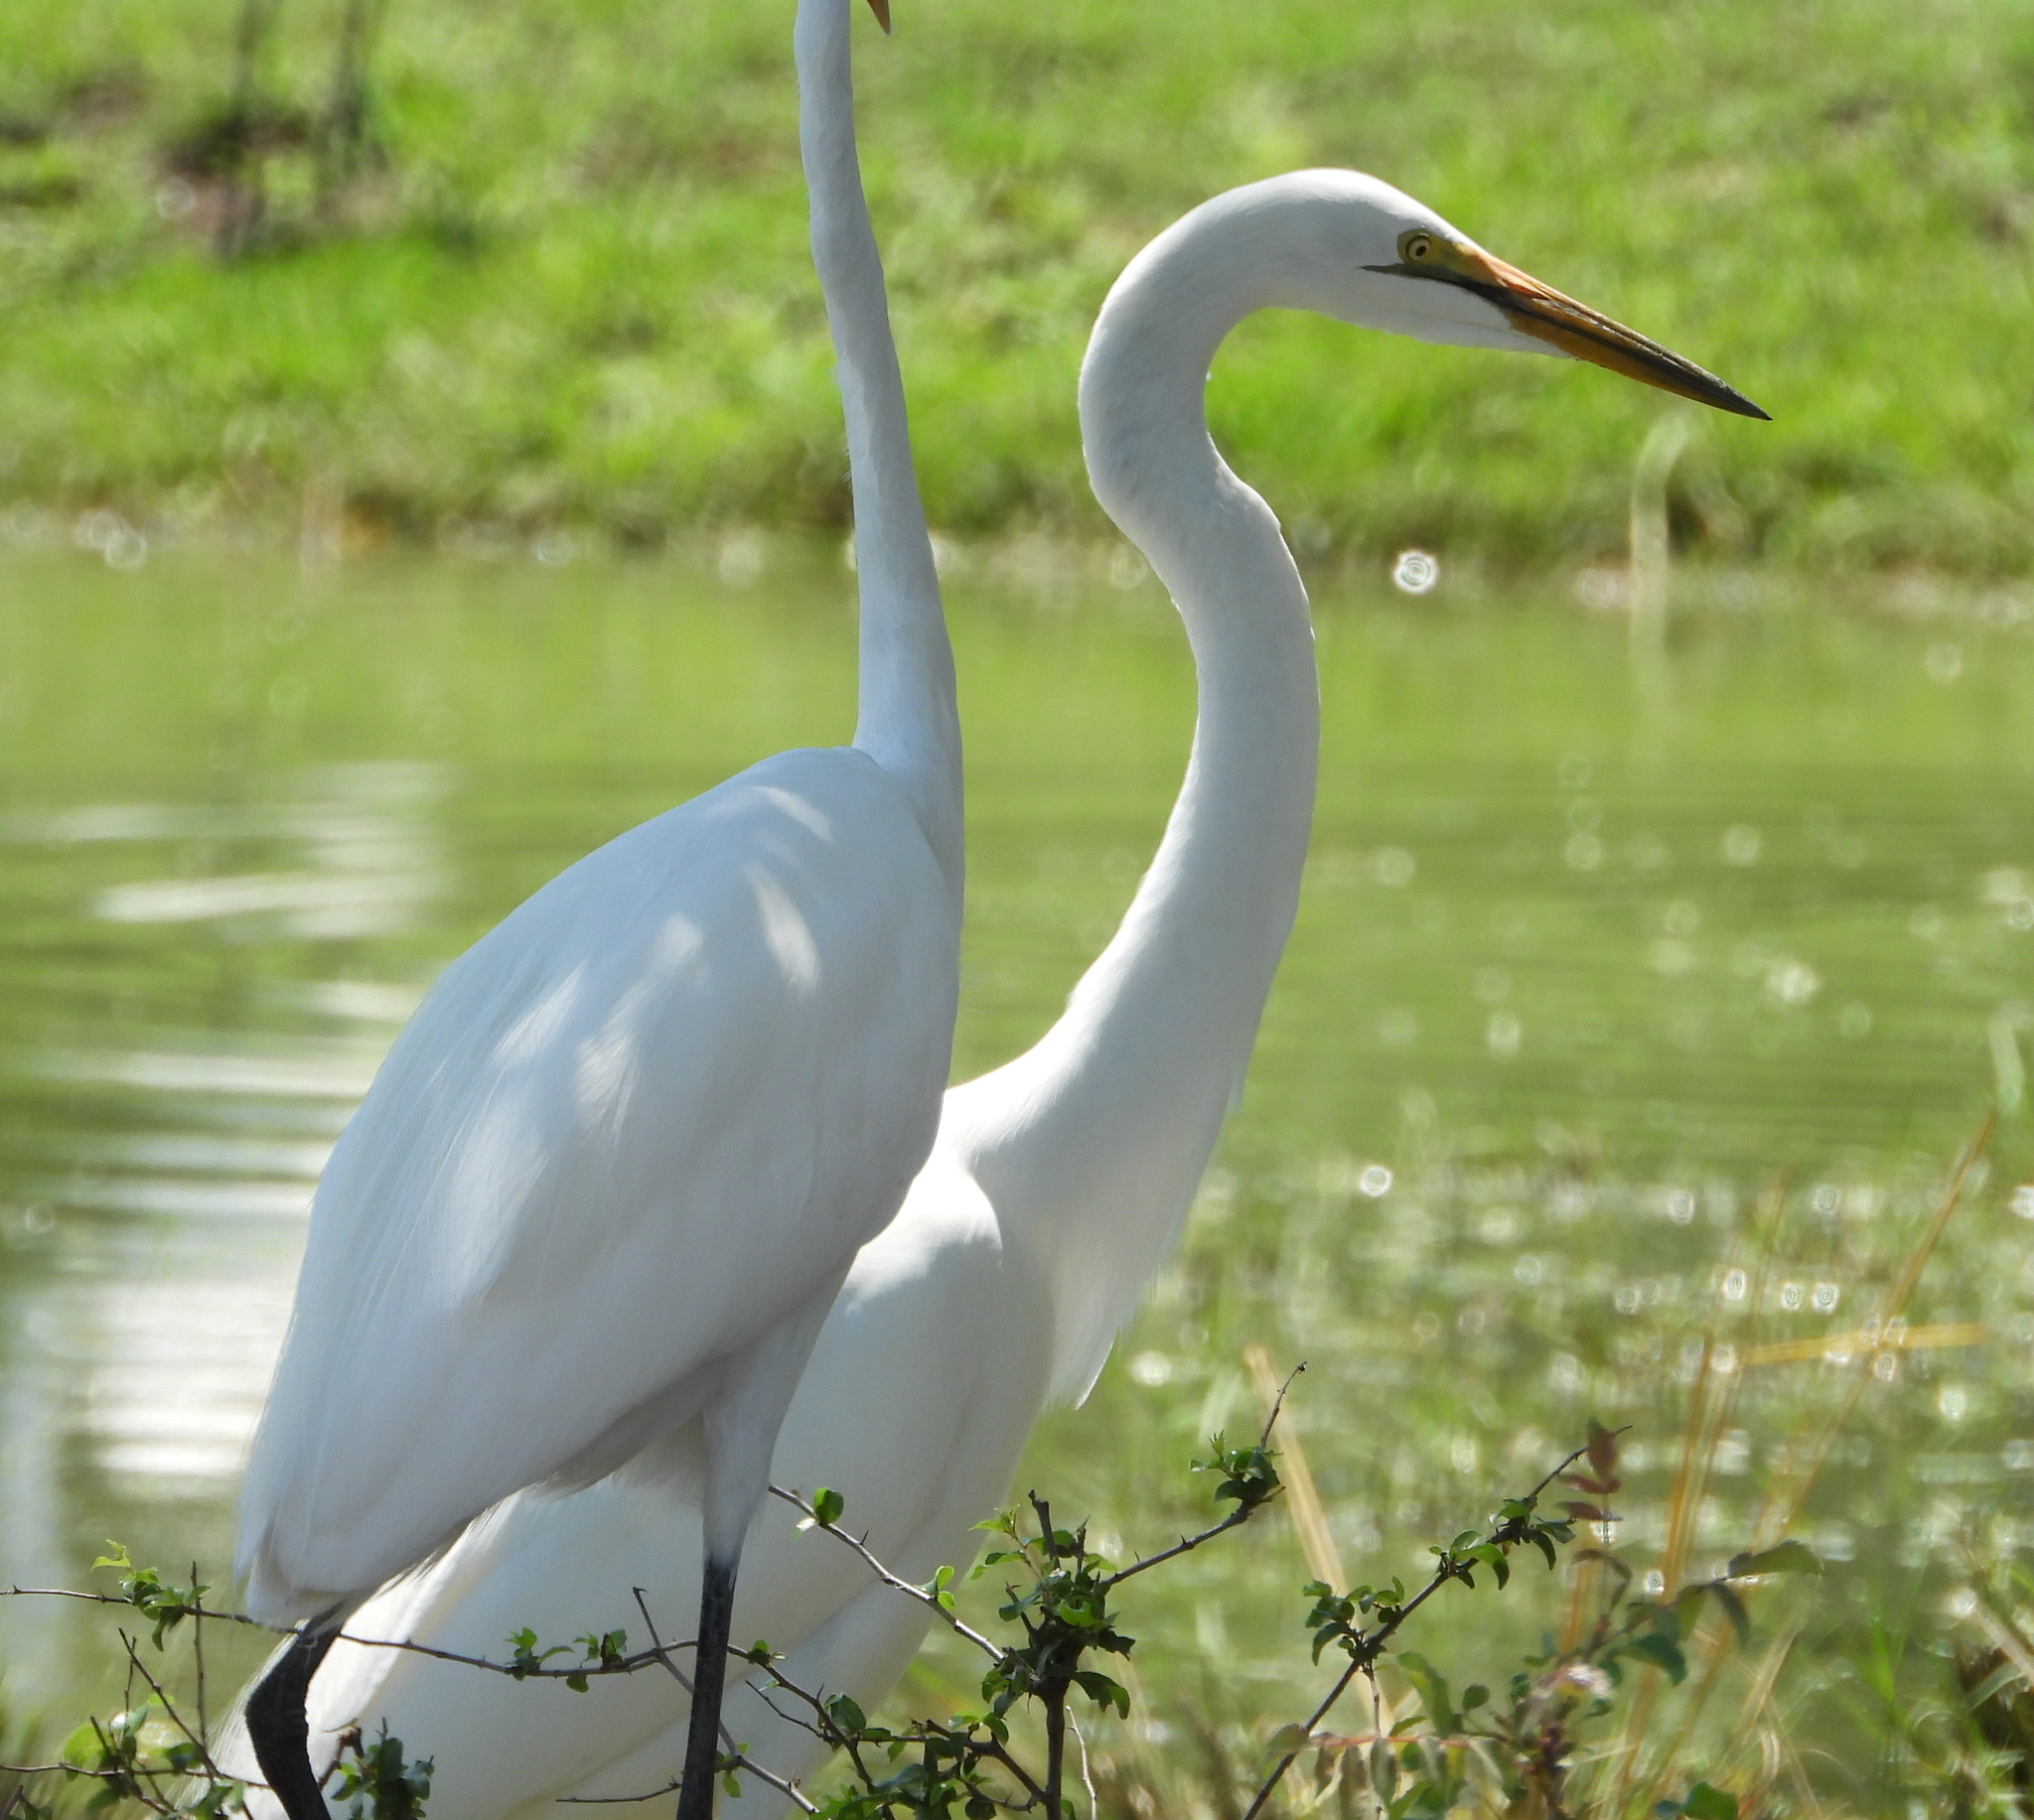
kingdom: Animalia
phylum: Chordata
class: Aves
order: Pelecaniformes
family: Ardeidae
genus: Ardea
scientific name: Ardea alba
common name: Great egret
